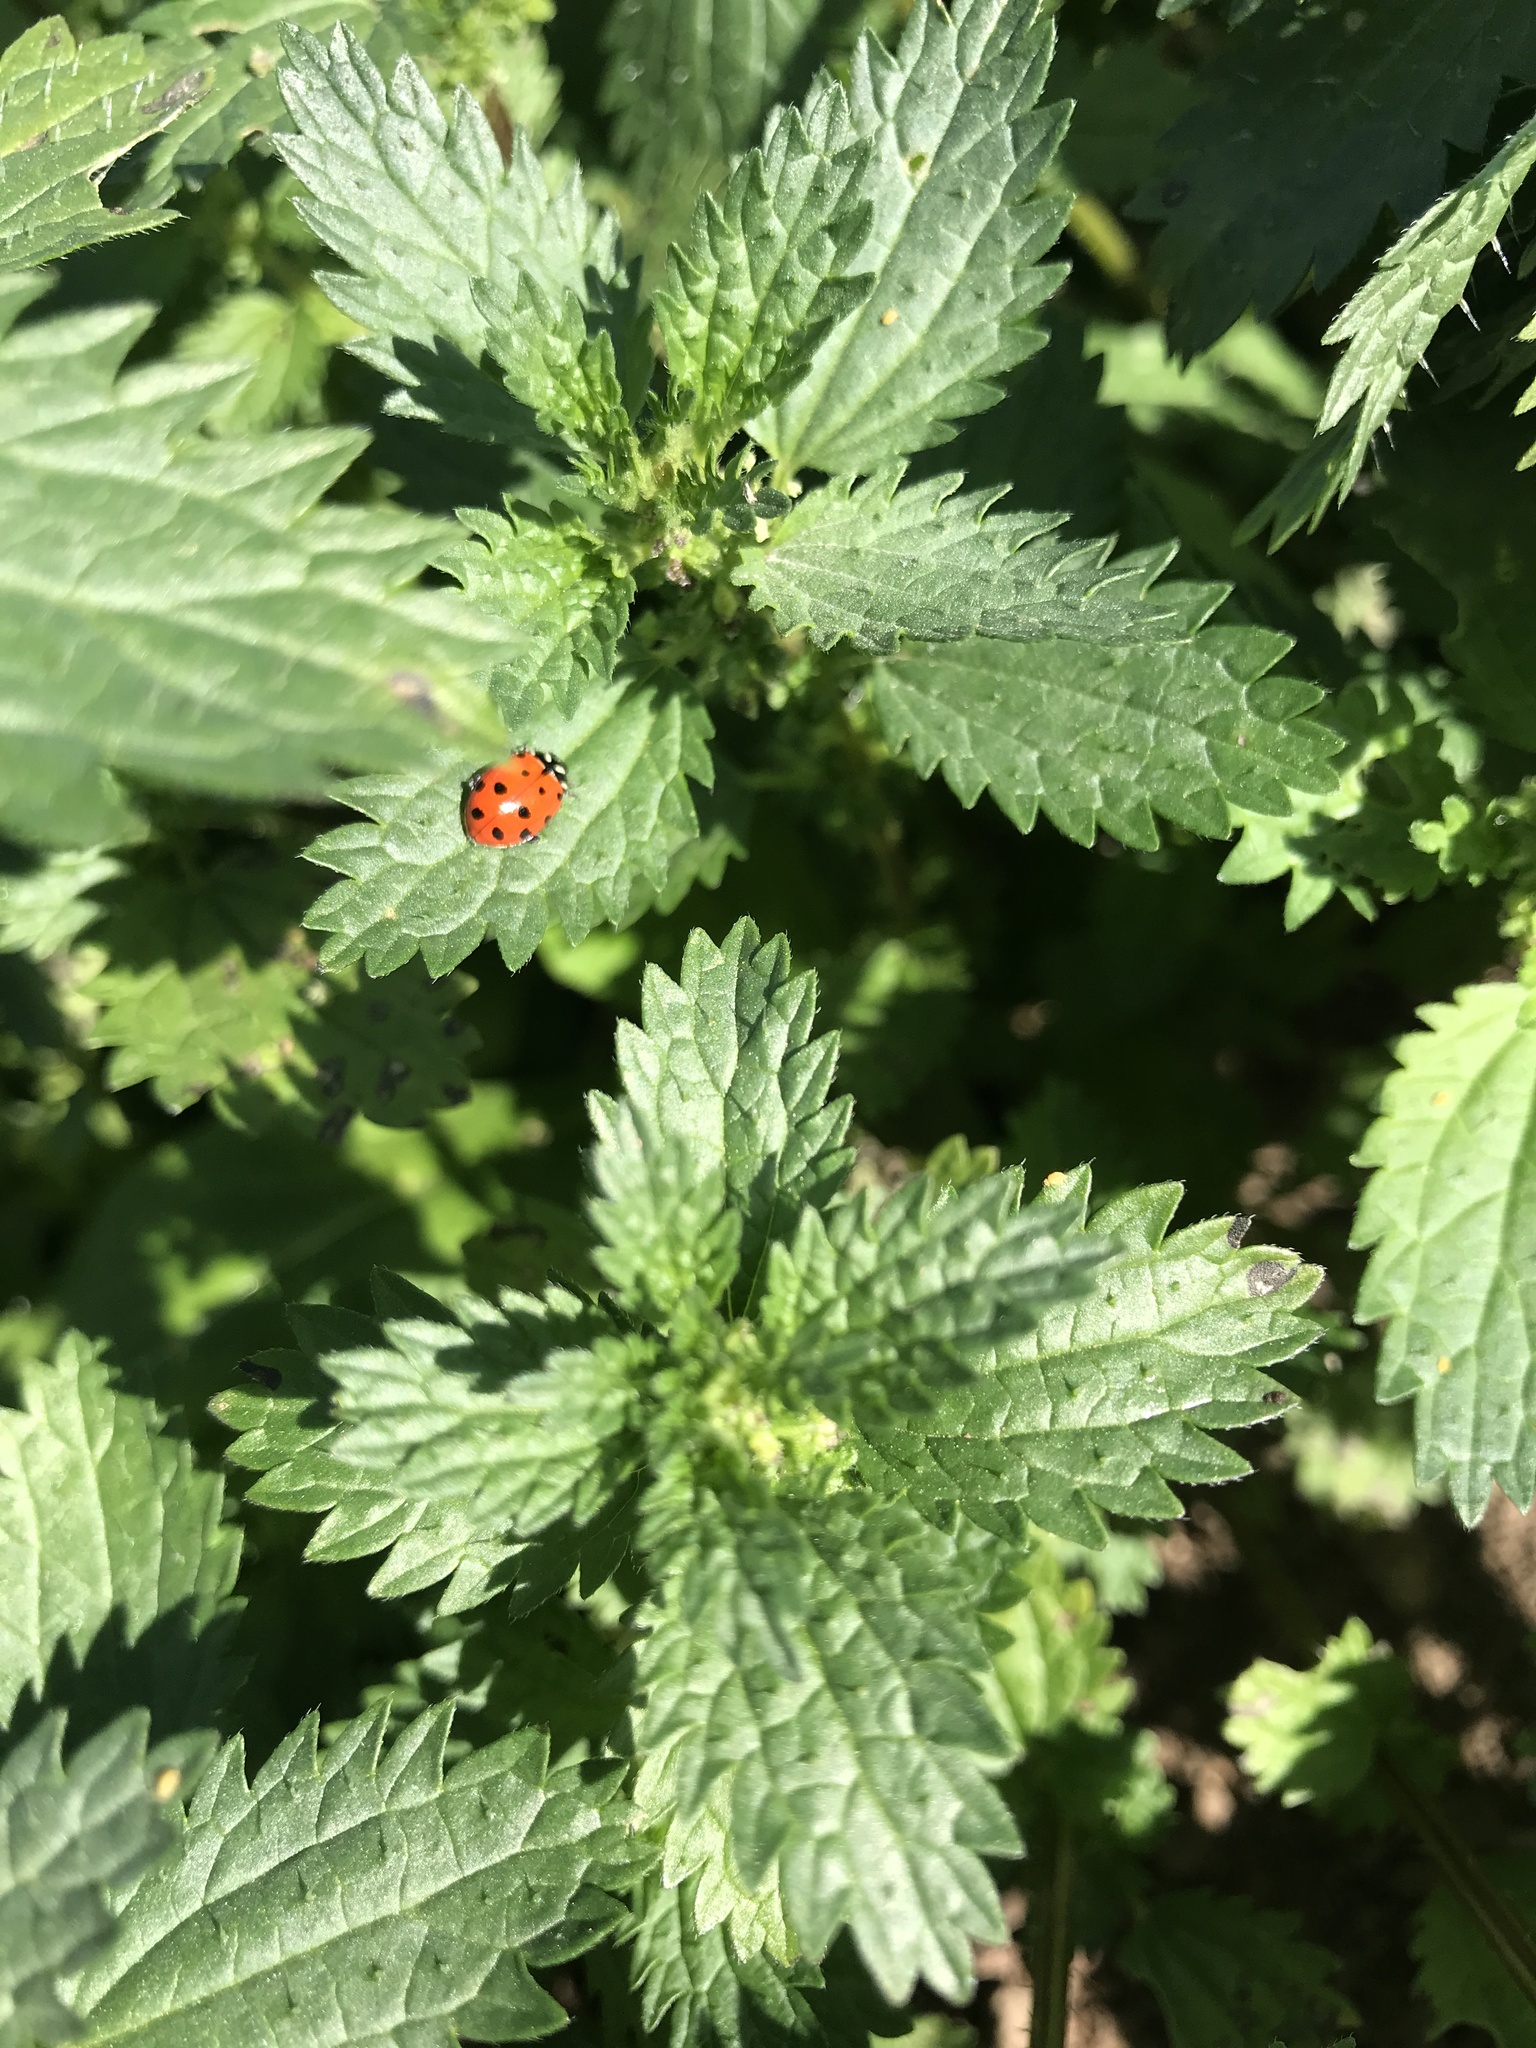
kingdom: Animalia
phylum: Arthropoda
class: Insecta
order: Coleoptera
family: Coccinellidae
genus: Hippodamia
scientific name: Hippodamia convergens
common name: Convergent lady beetle
